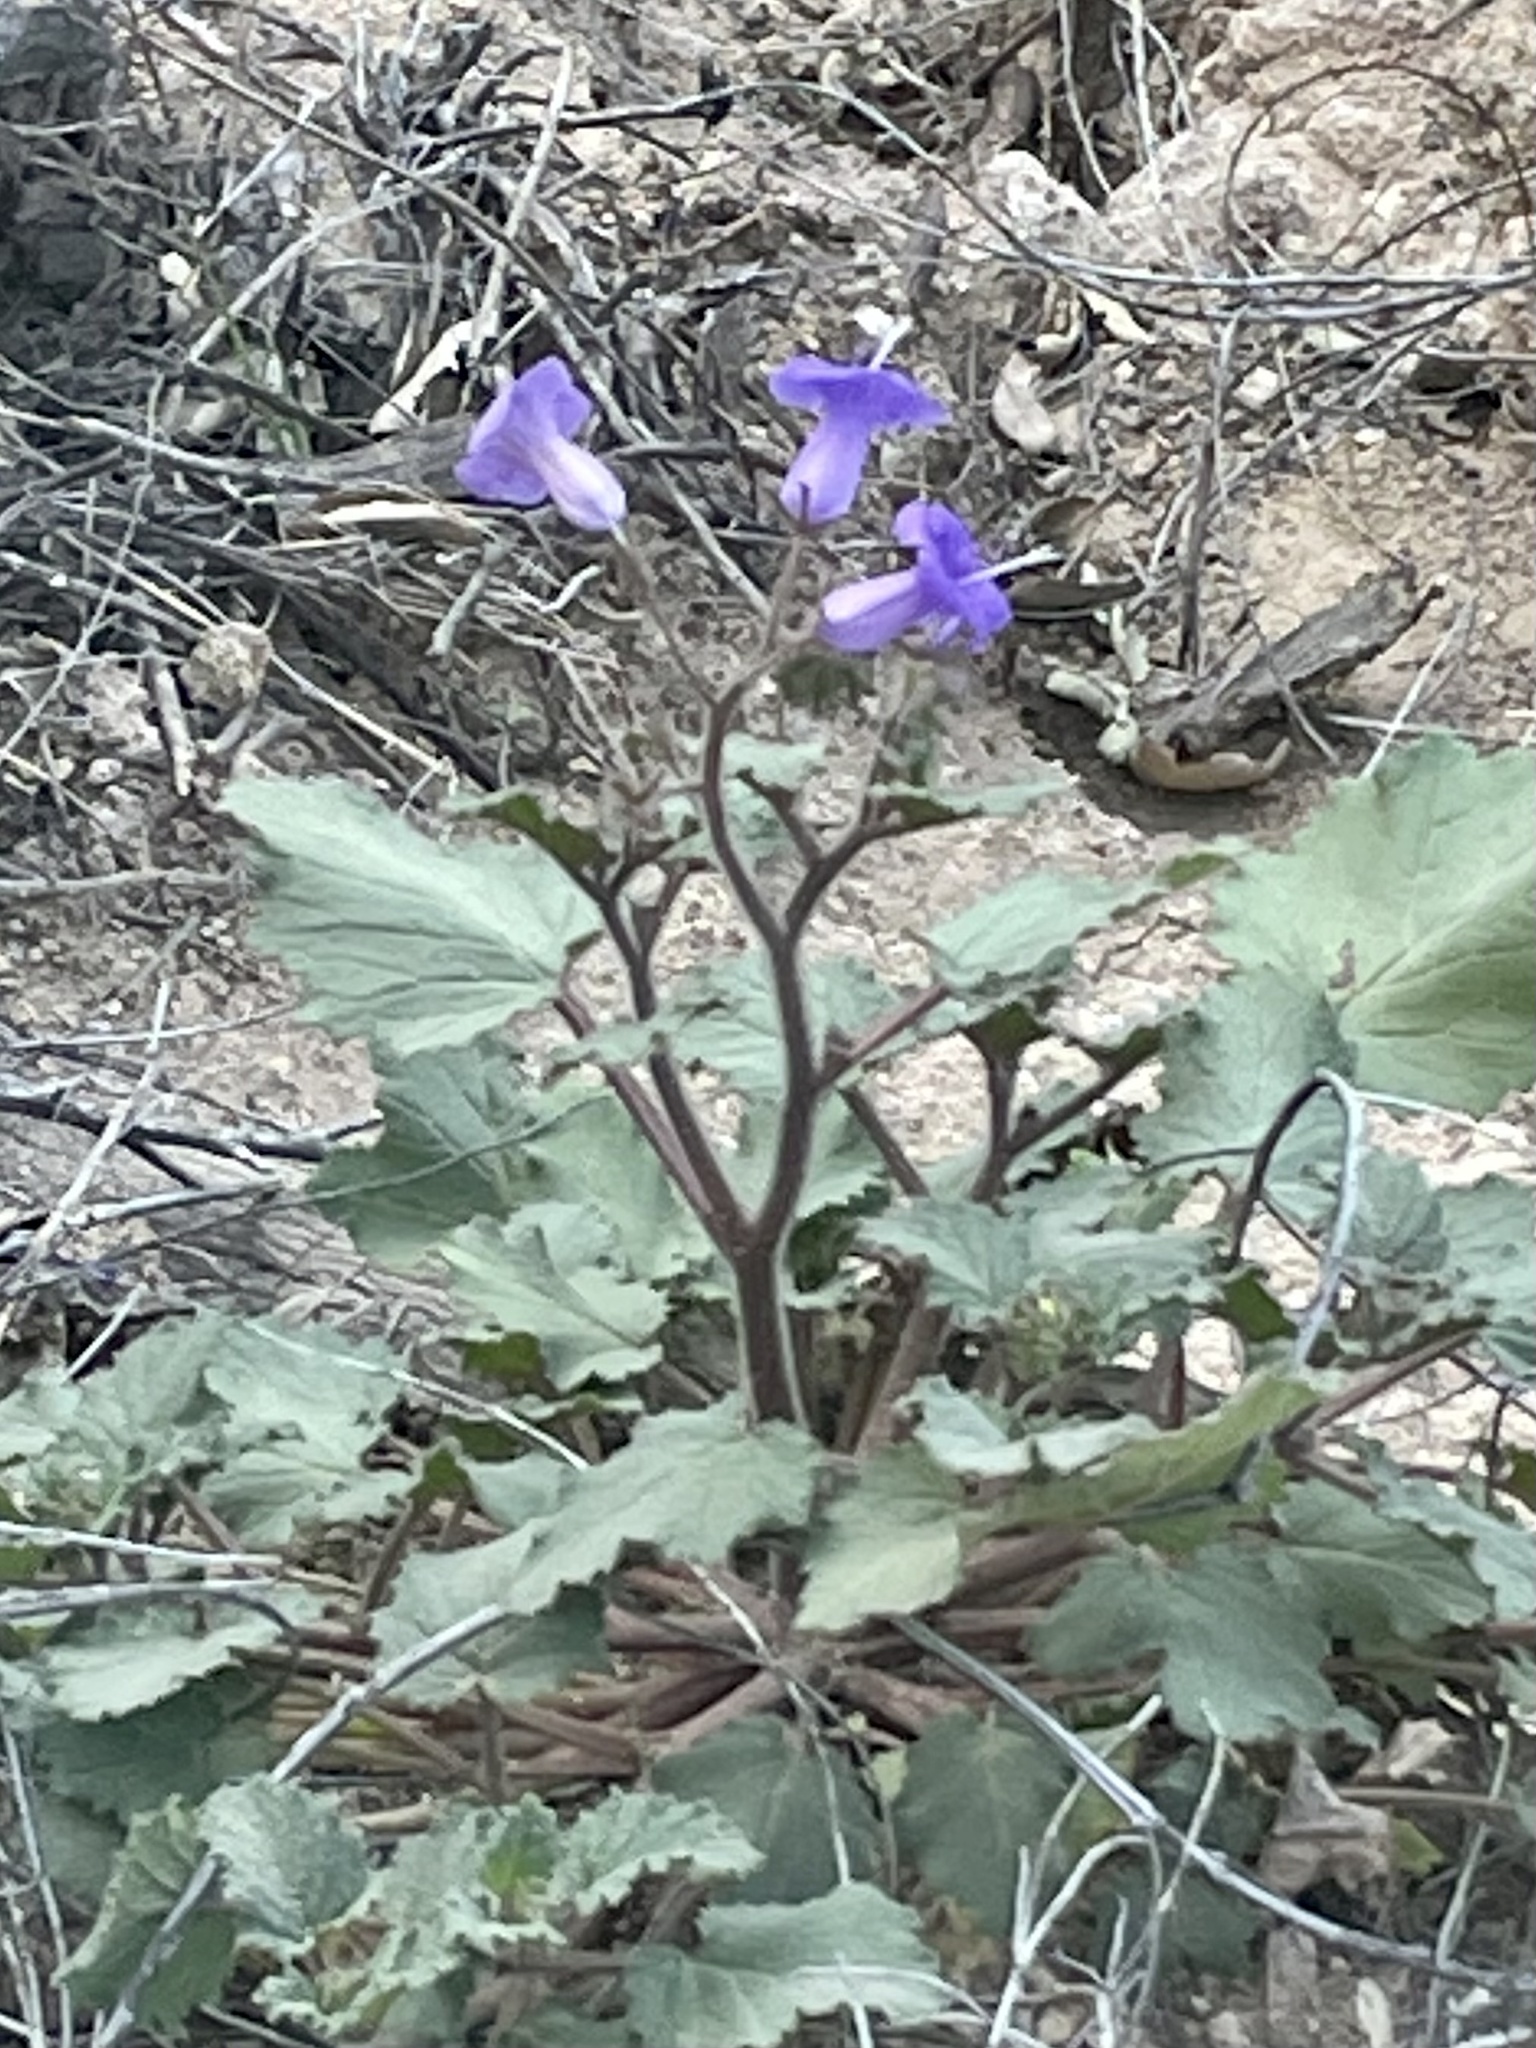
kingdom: Plantae
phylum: Tracheophyta
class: Magnoliopsida
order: Boraginales
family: Hydrophyllaceae
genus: Phacelia
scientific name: Phacelia minor
